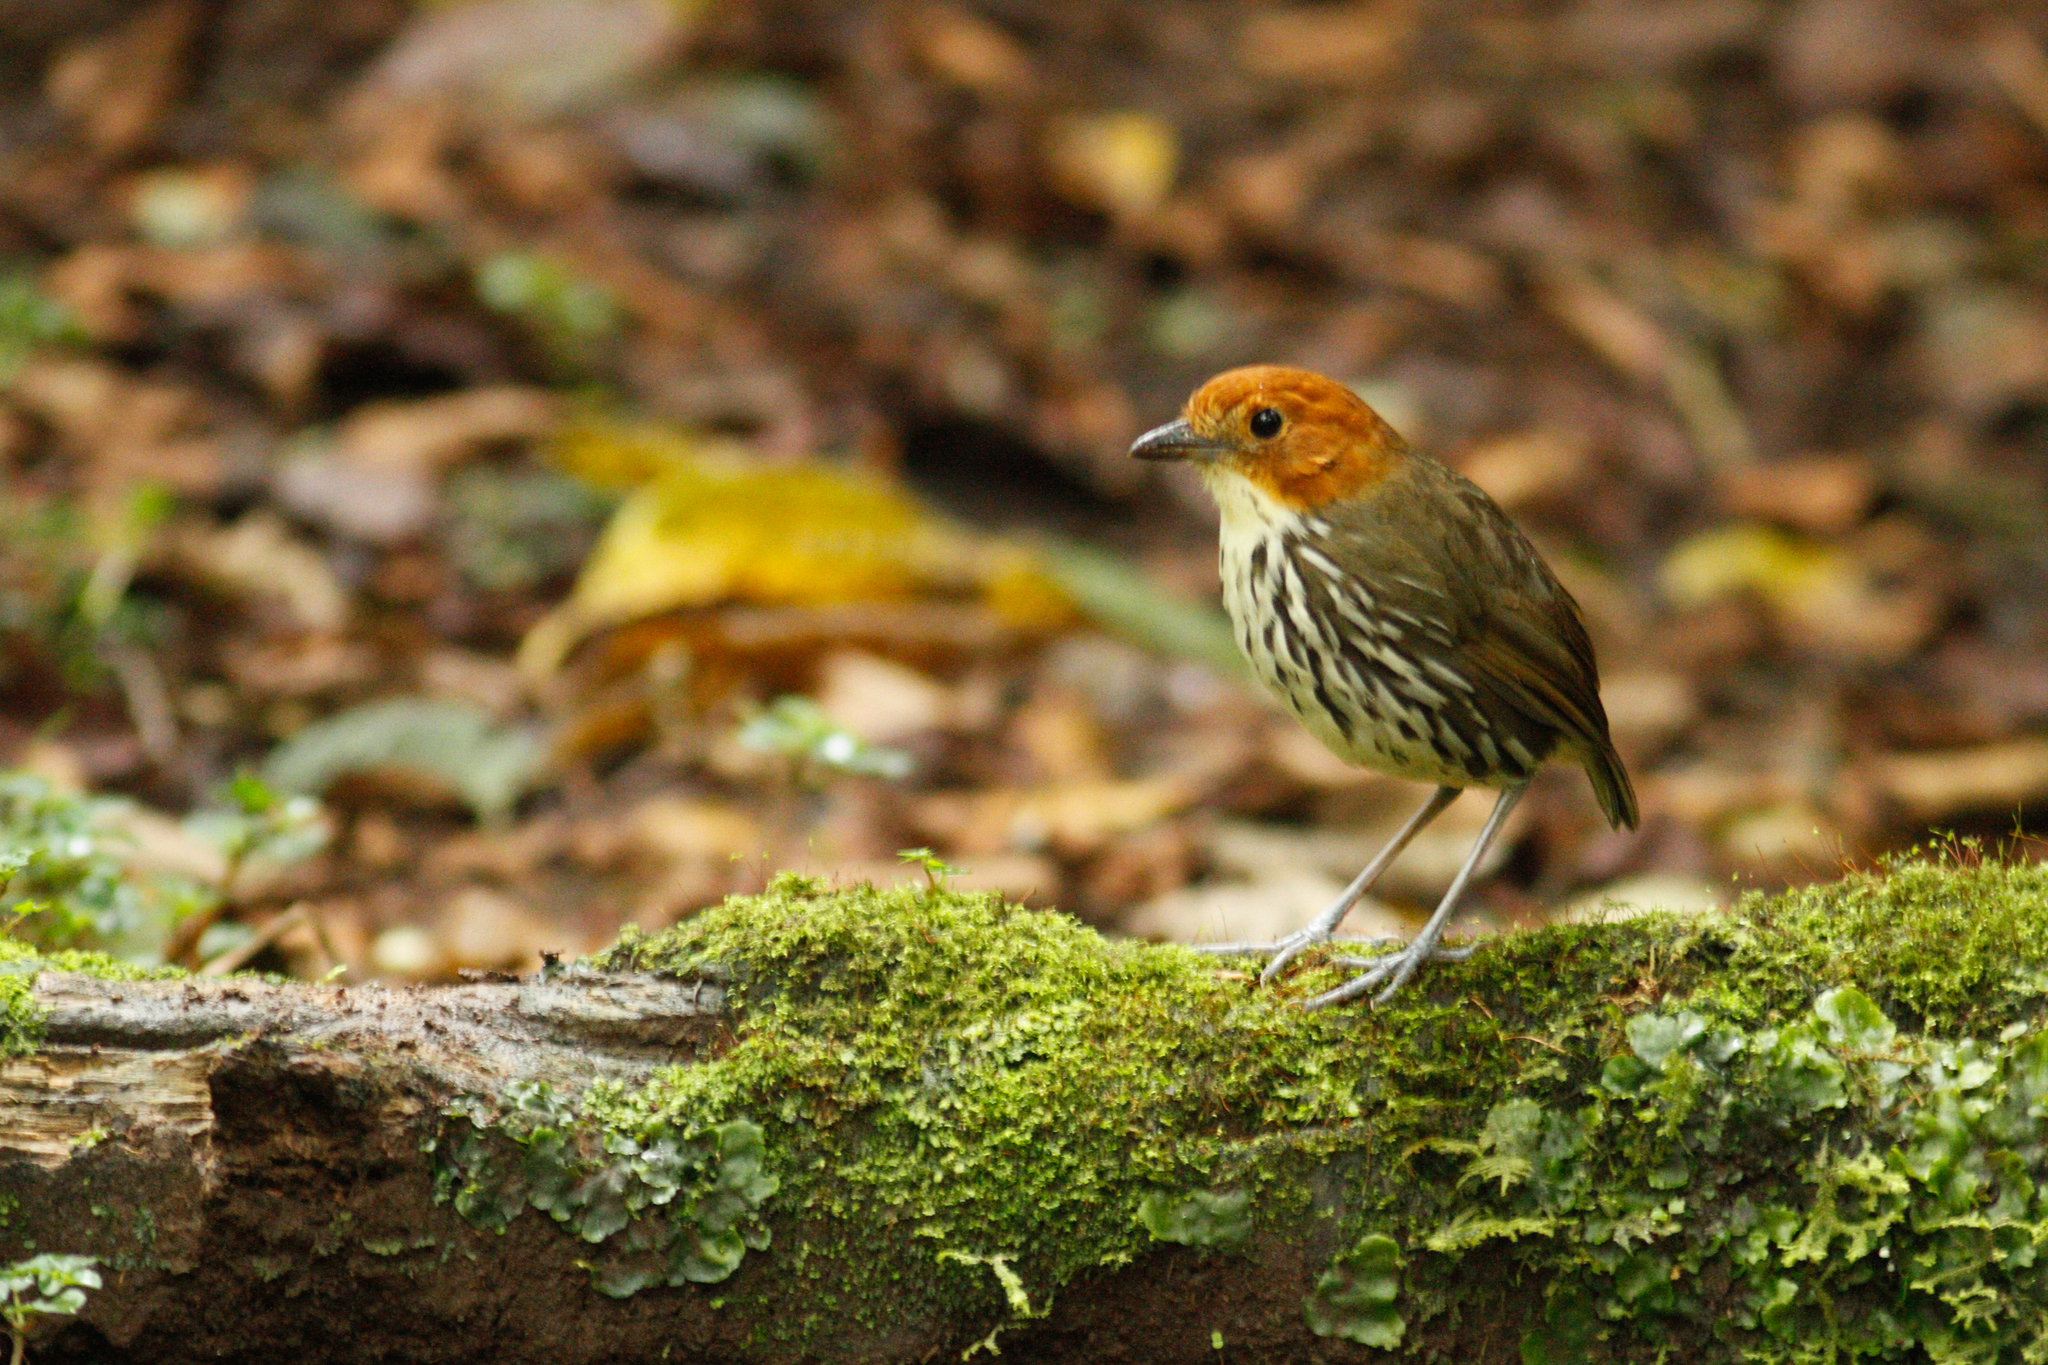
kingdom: Animalia
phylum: Chordata
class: Aves
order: Passeriformes
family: Grallariidae
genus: Grallaria
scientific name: Grallaria ruficapilla
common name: Chestnut-crowned antpitta
